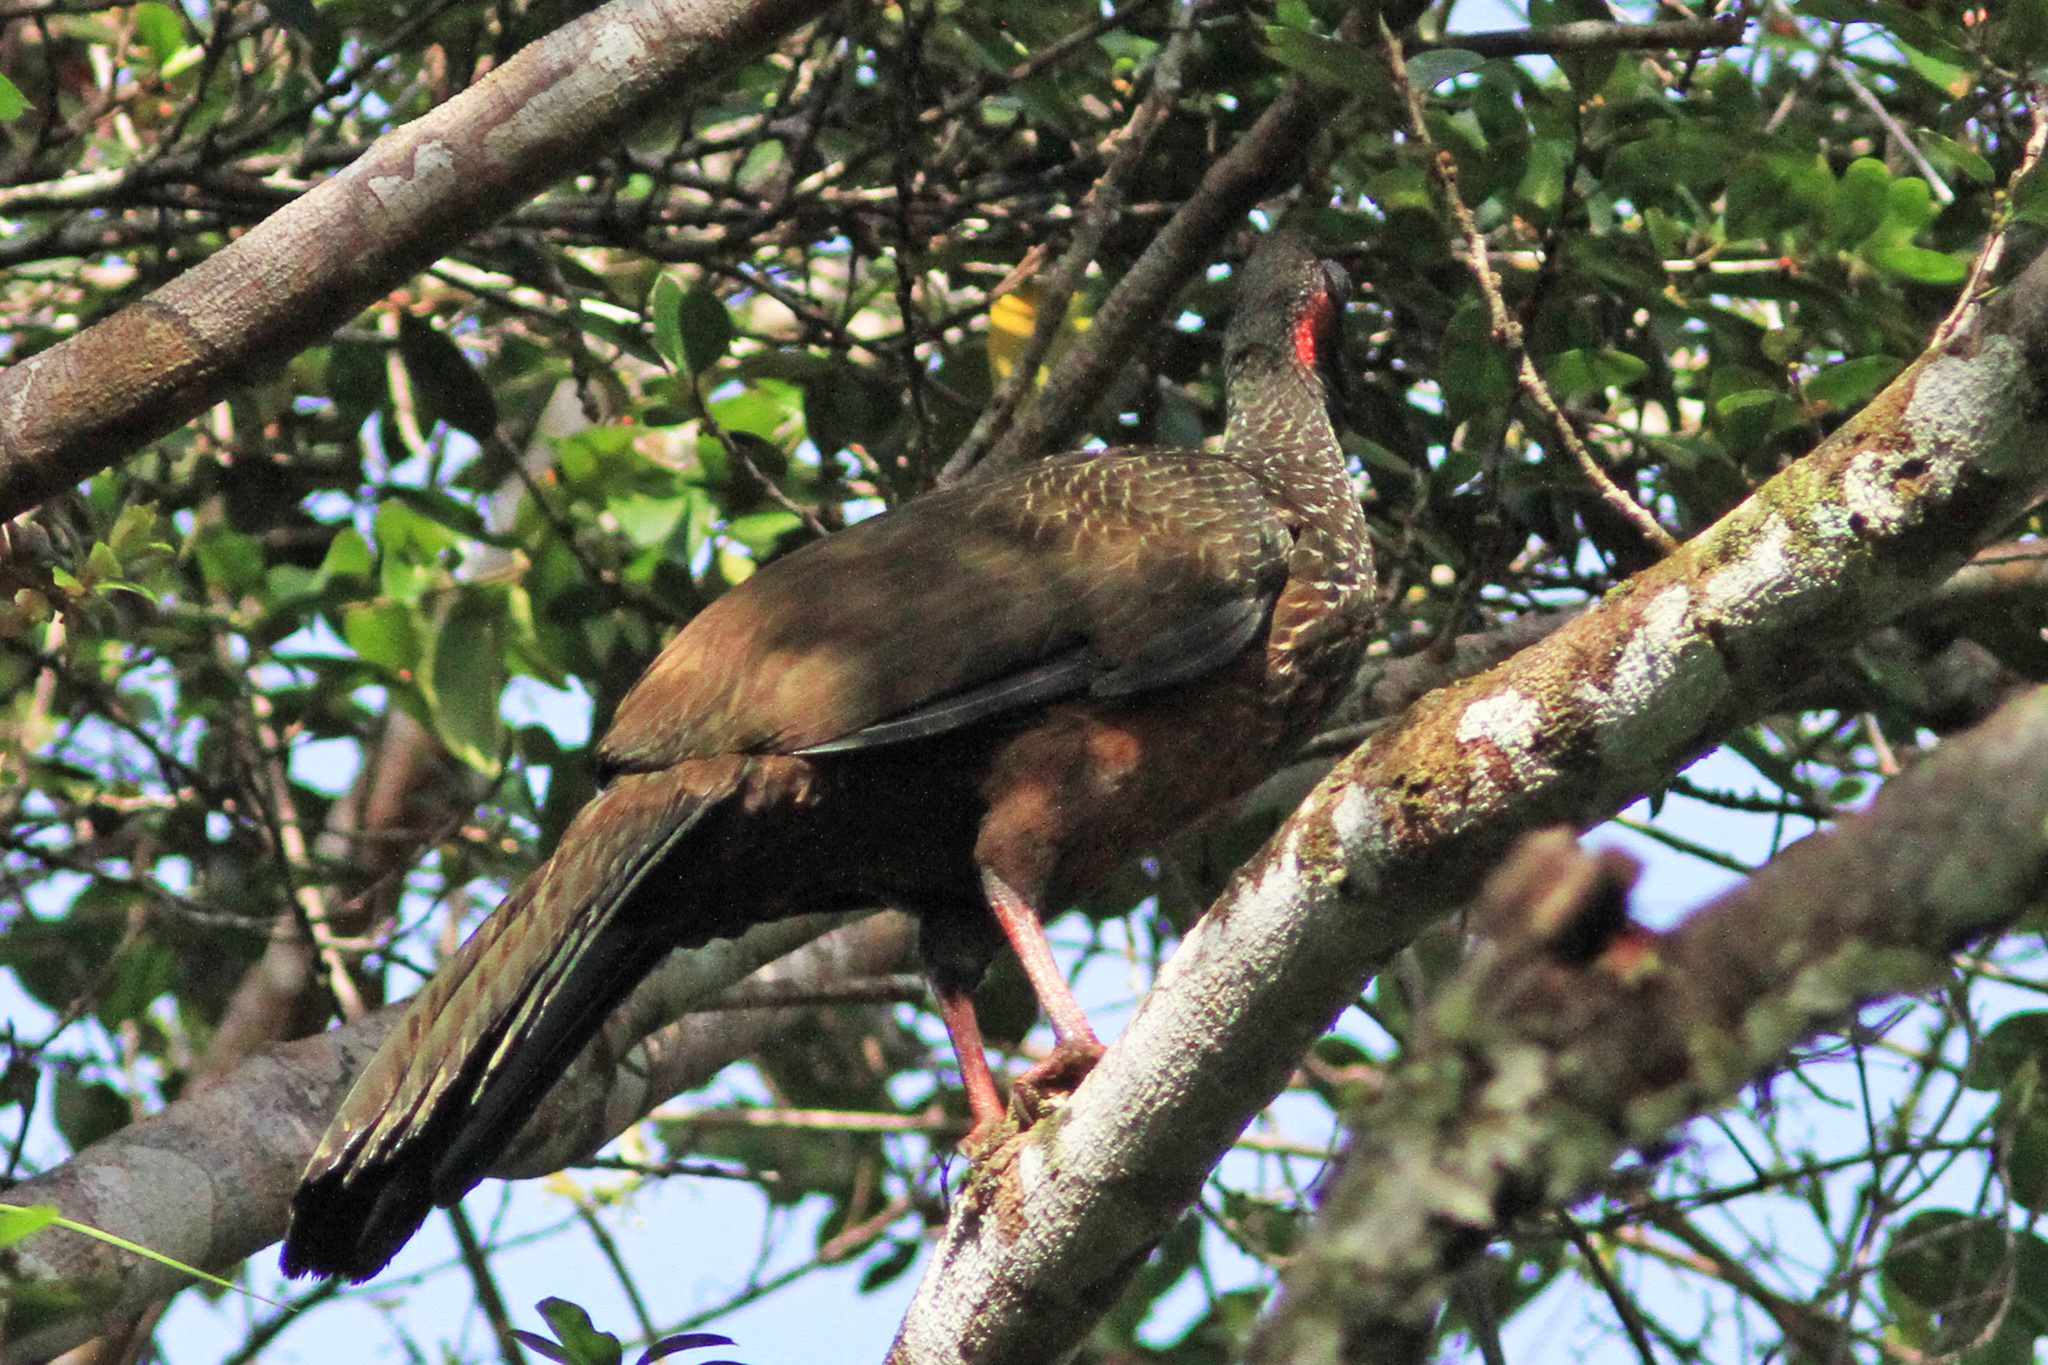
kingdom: Animalia
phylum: Chordata
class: Aves
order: Galliformes
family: Cracidae
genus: Penelope
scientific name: Penelope jacquacu
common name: Spix's guan
